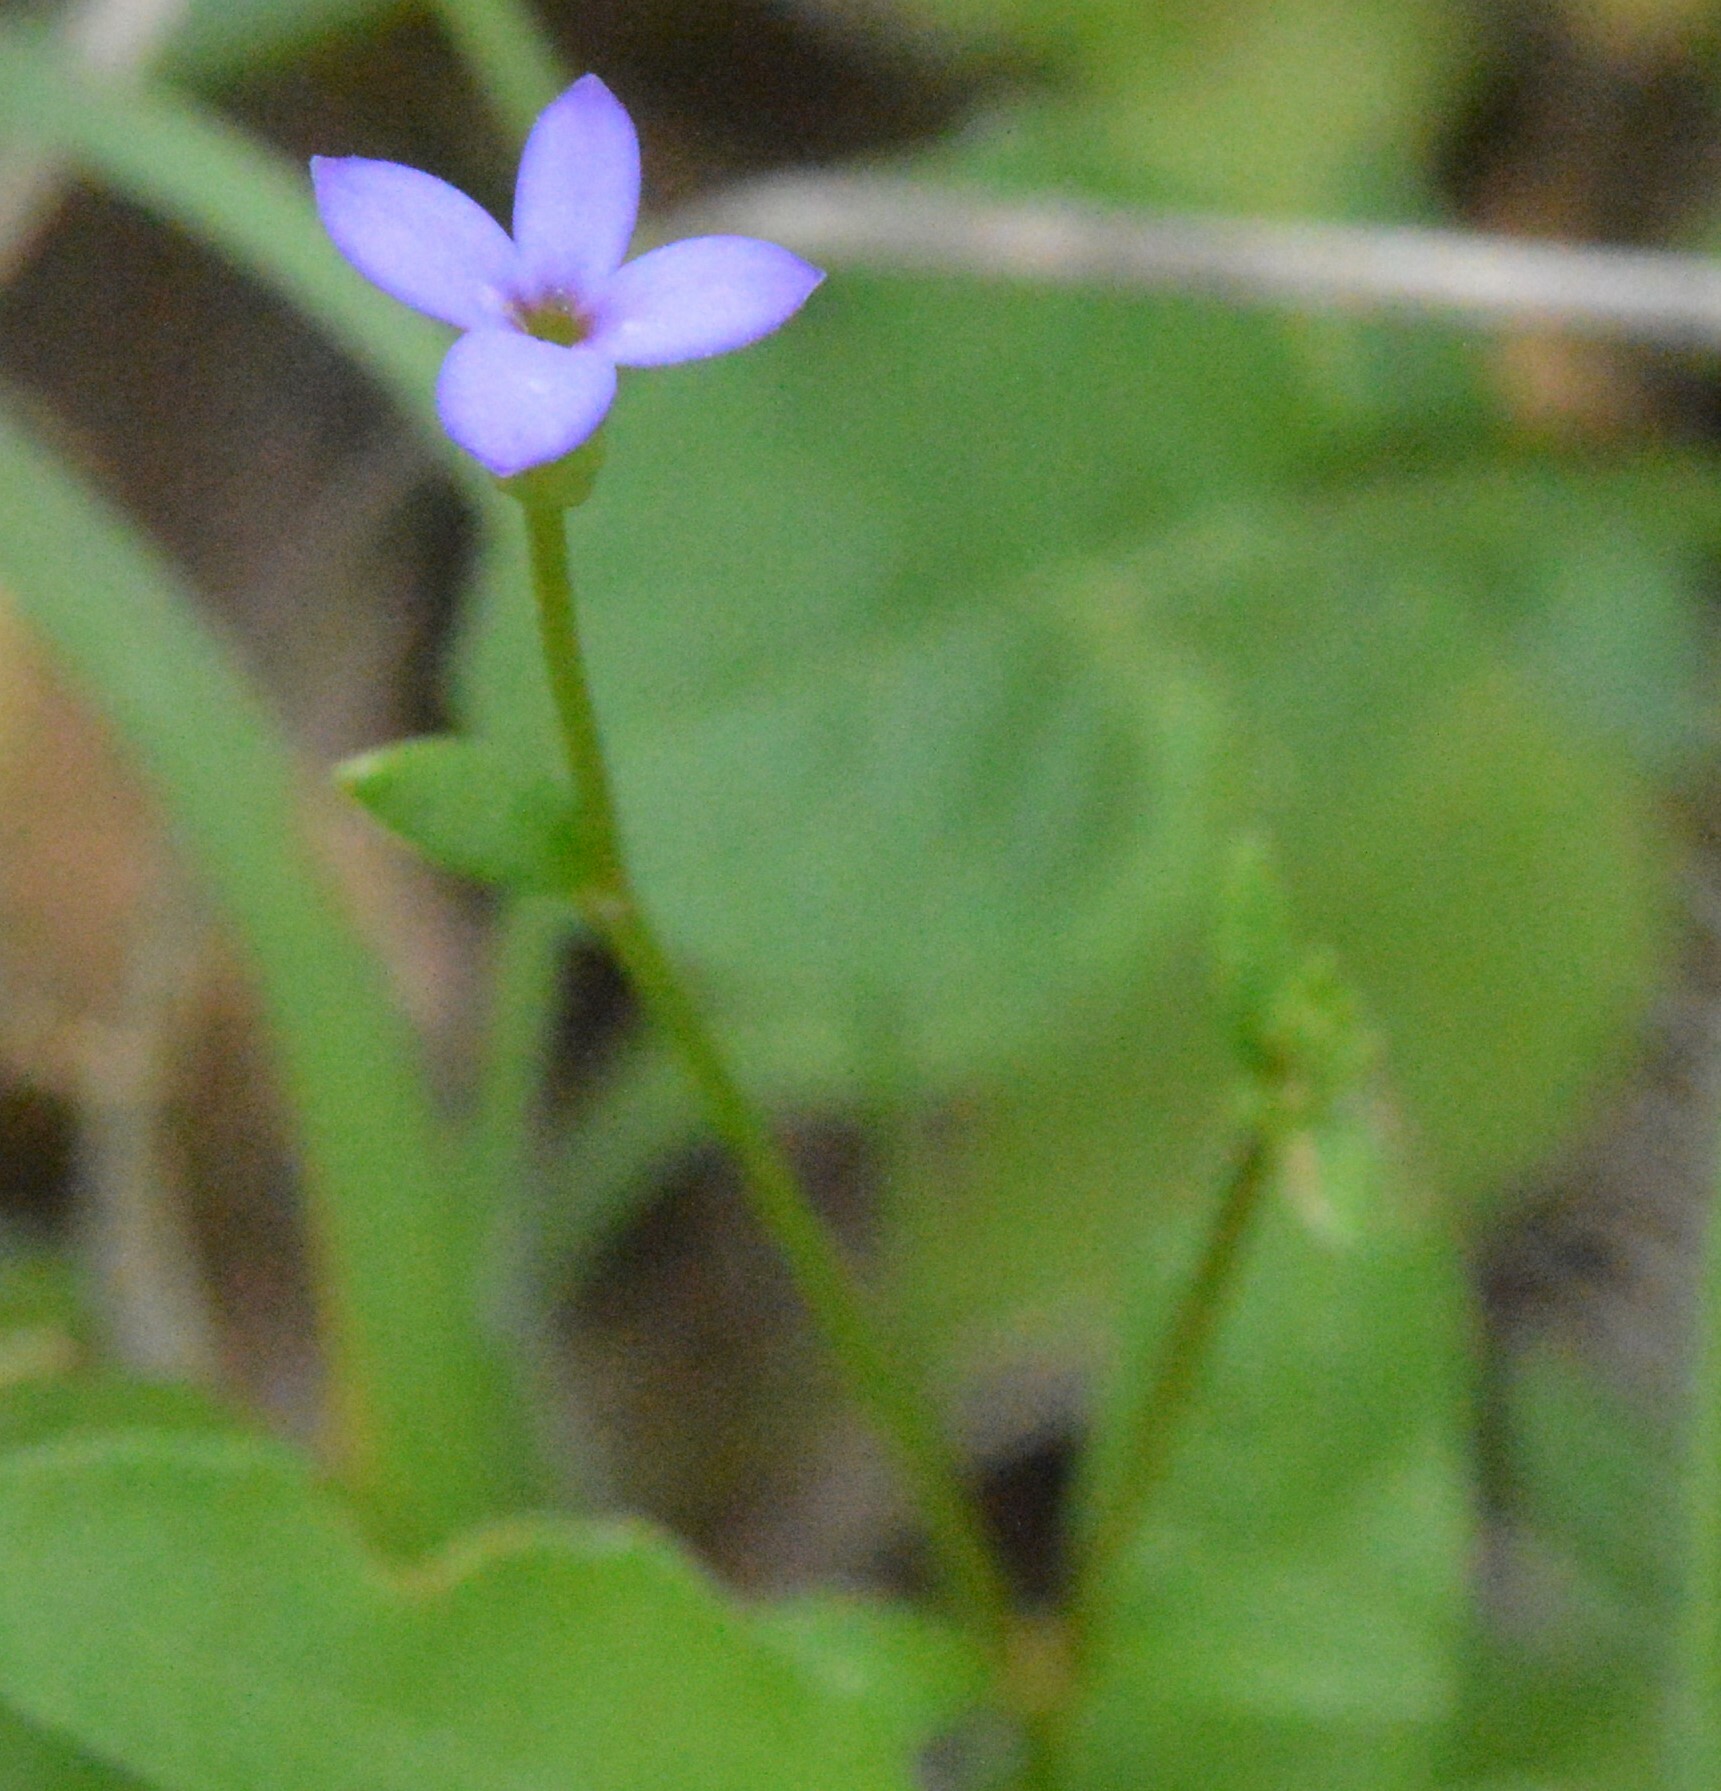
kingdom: Plantae
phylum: Tracheophyta
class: Magnoliopsida
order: Gentianales
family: Rubiaceae
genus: Houstonia
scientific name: Houstonia pusilla
